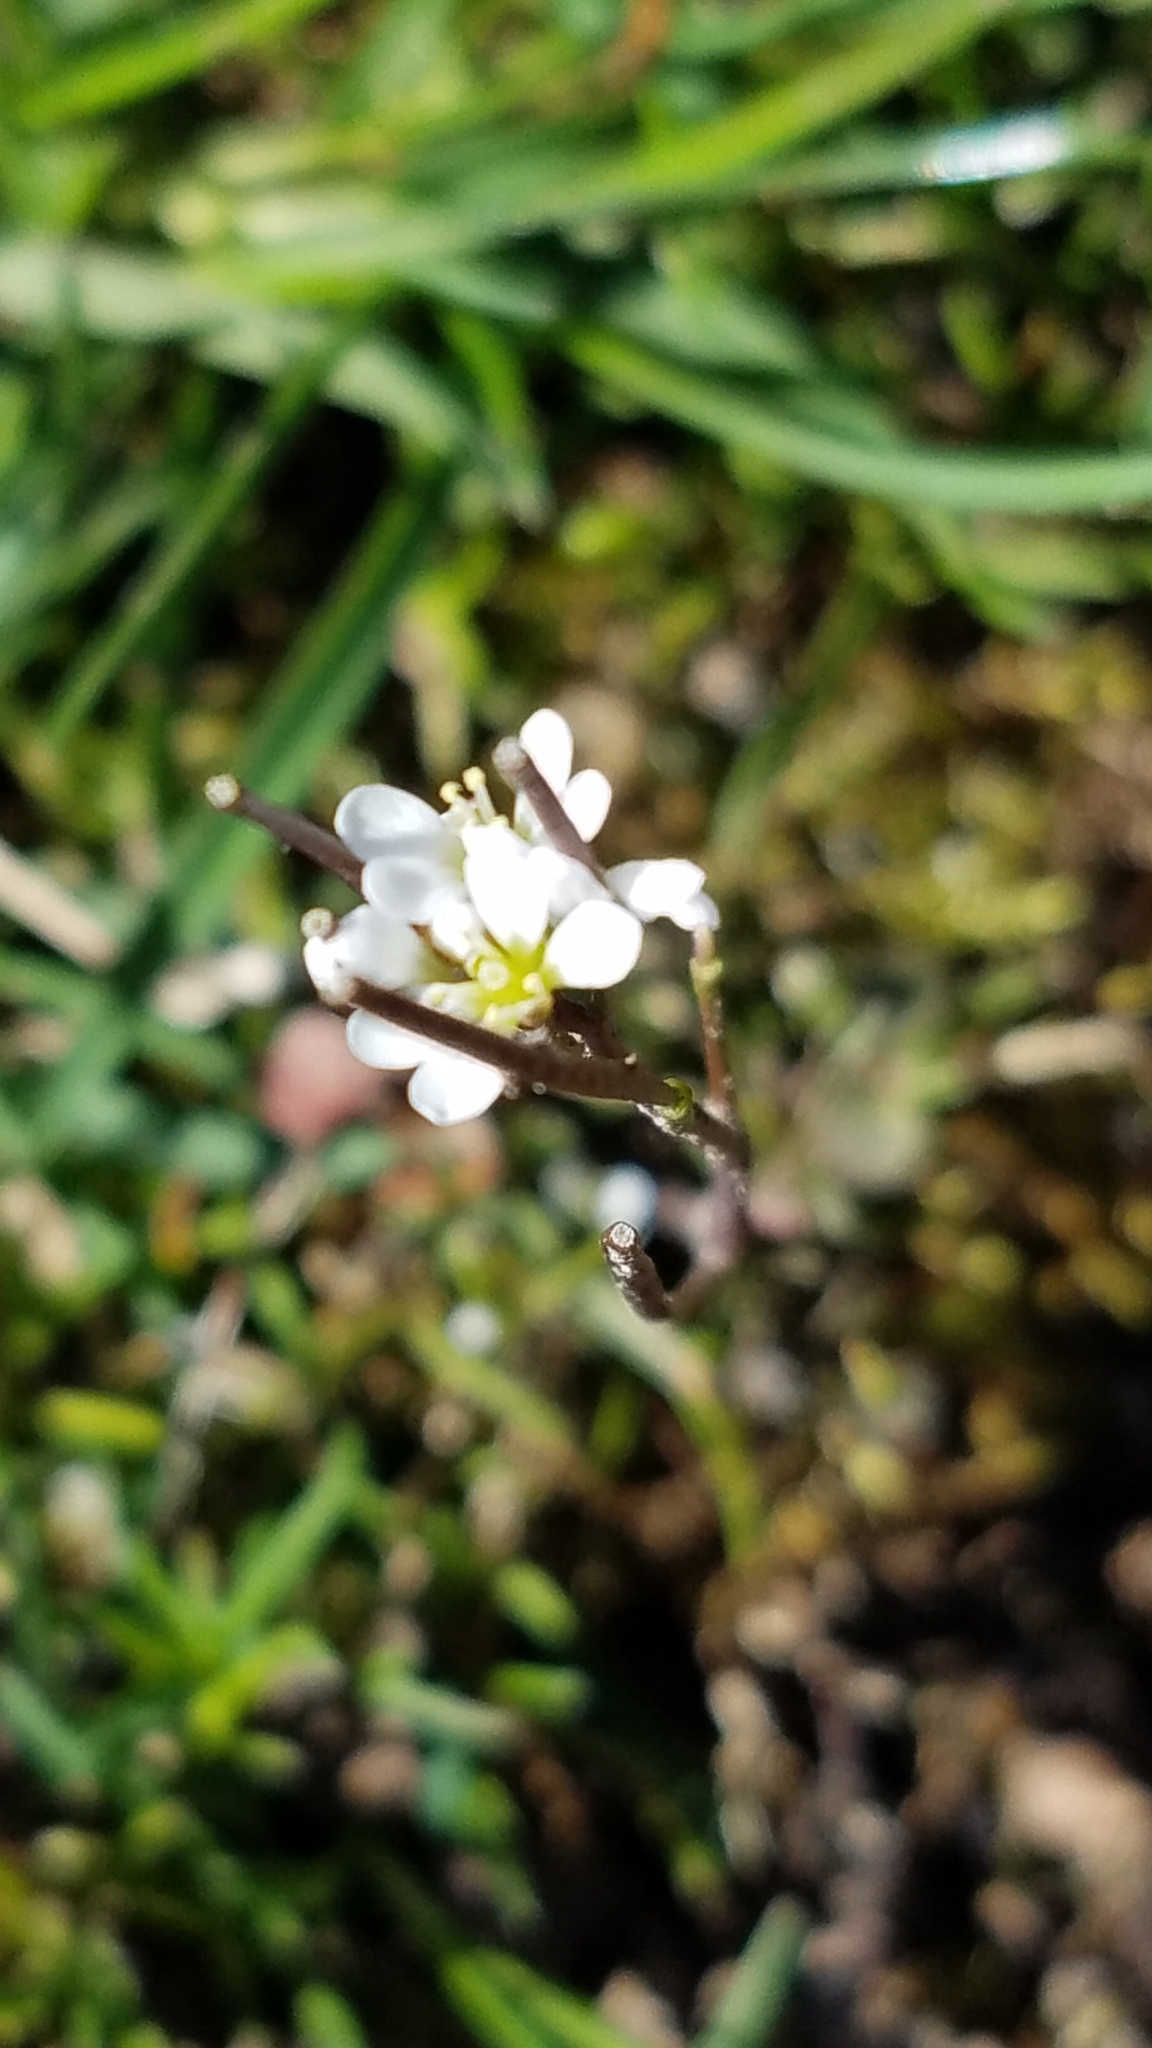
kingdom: Plantae
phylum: Tracheophyta
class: Magnoliopsida
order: Brassicales
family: Brassicaceae
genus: Cardamine
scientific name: Cardamine hirsuta
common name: Hairy bittercress
